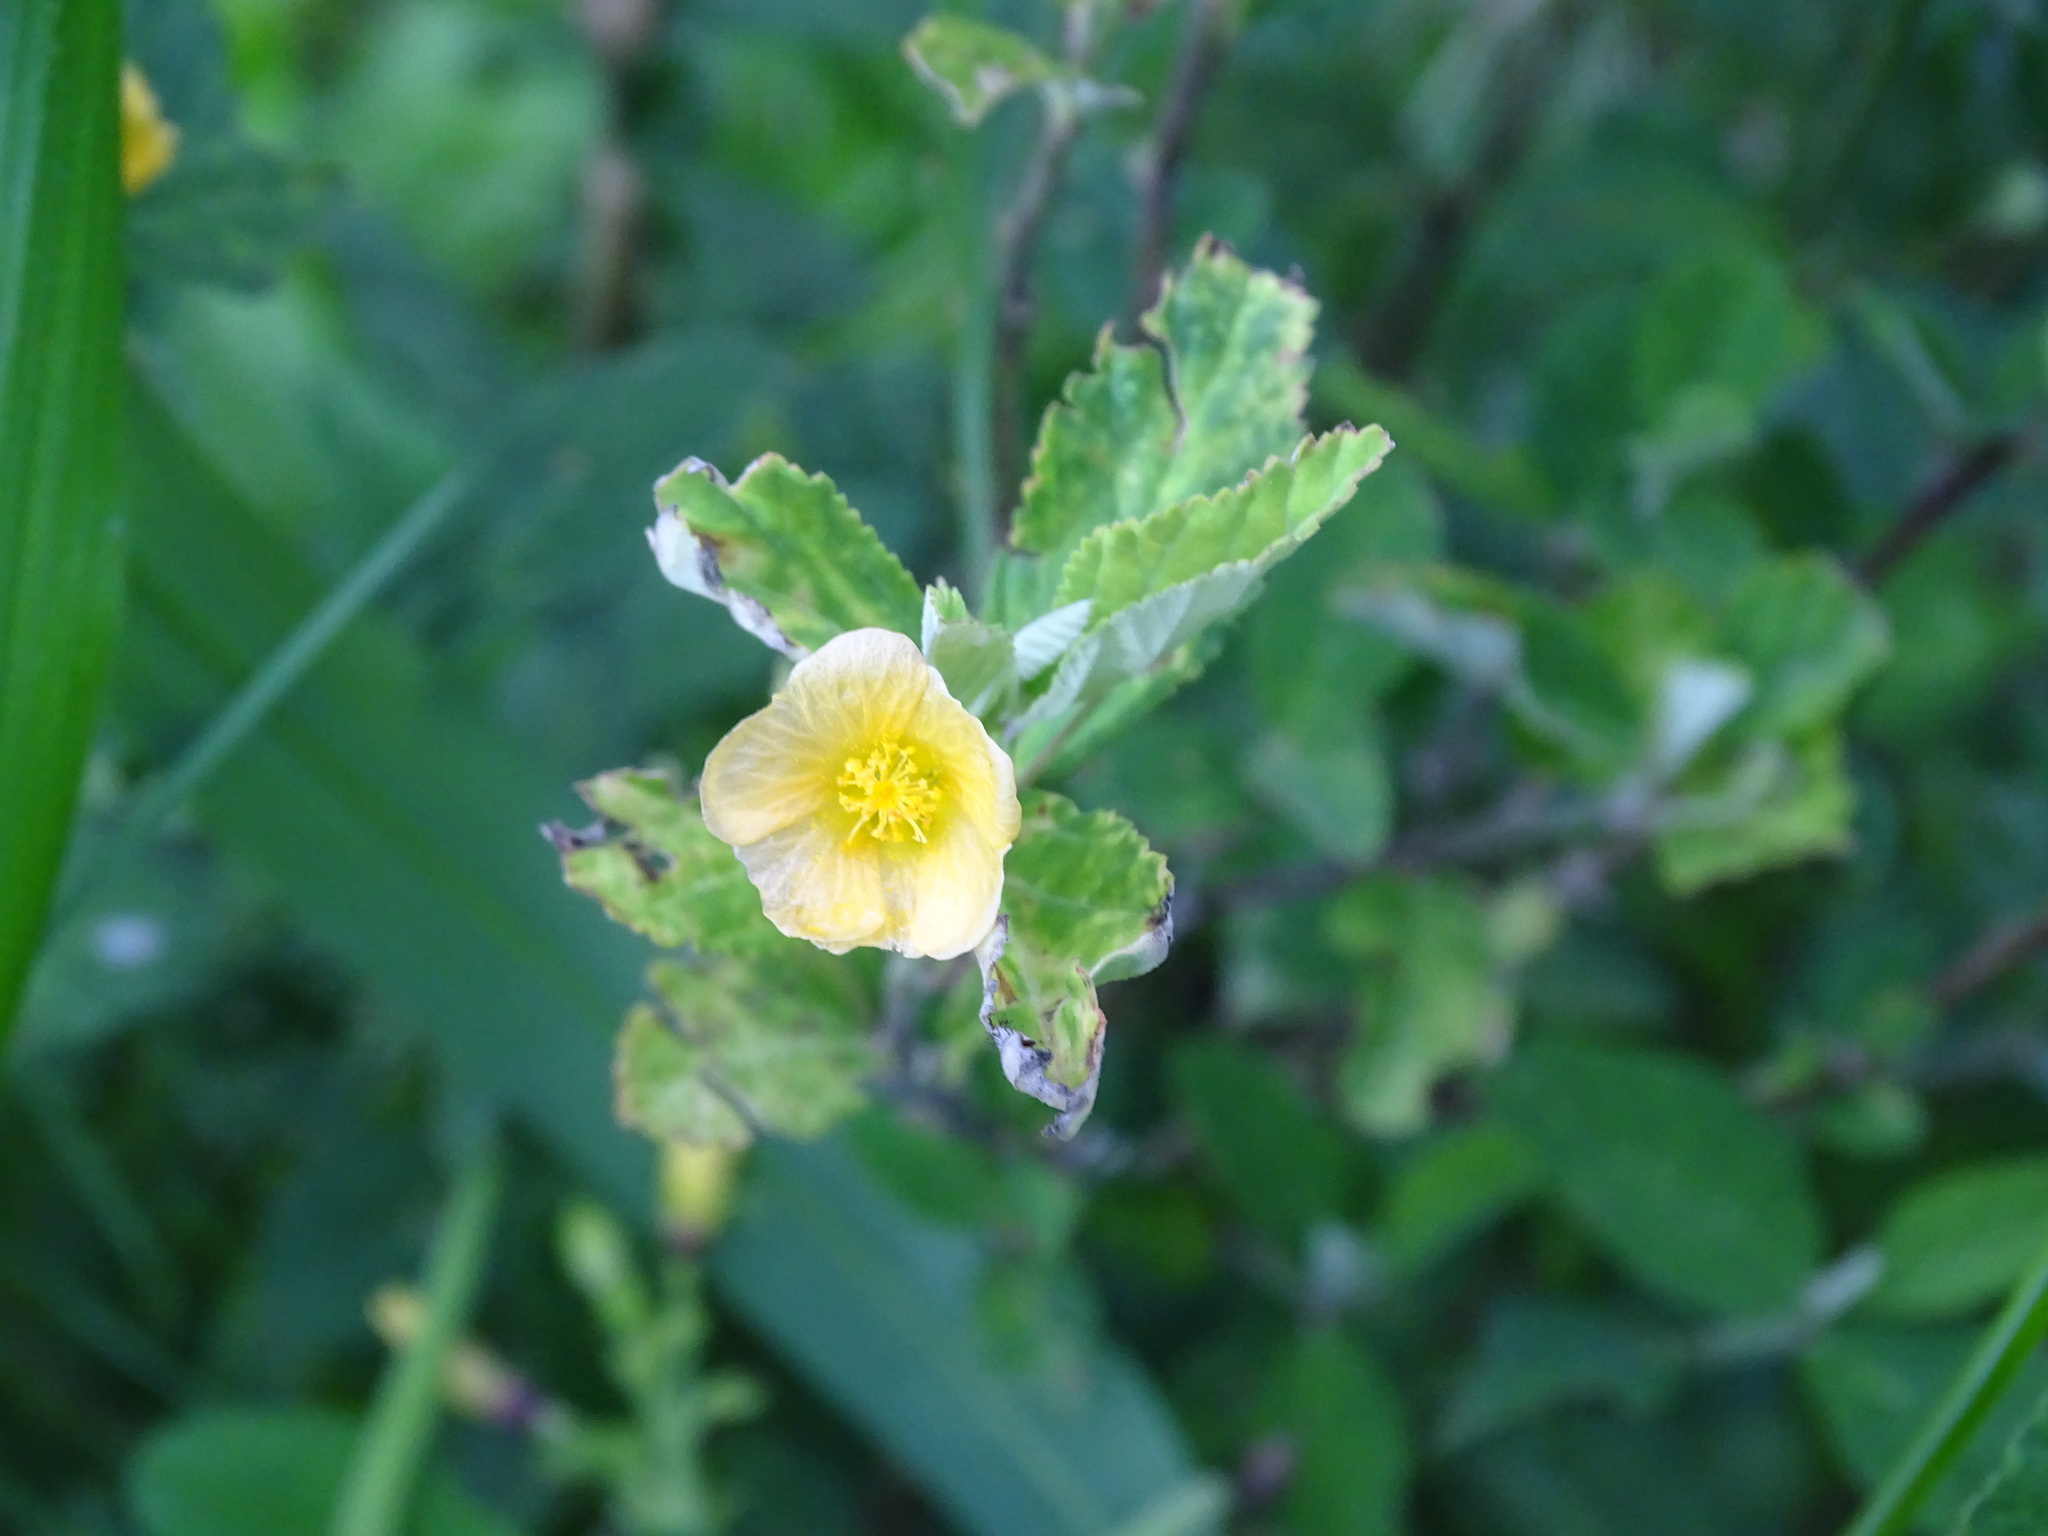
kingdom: Plantae
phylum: Tracheophyta
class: Magnoliopsida
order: Malvales
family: Malvaceae
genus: Sida
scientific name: Sida acuta
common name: Common wireweed
